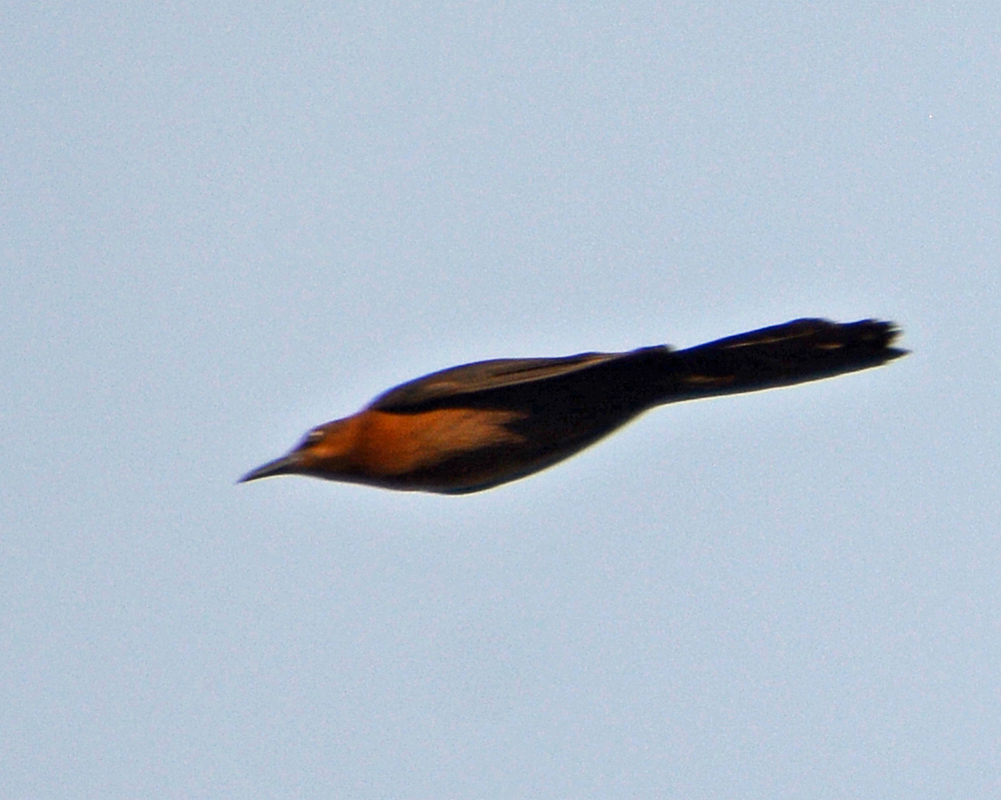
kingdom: Animalia
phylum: Chordata
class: Aves
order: Passeriformes
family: Icteridae
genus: Quiscalus
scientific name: Quiscalus mexicanus
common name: Great-tailed grackle
